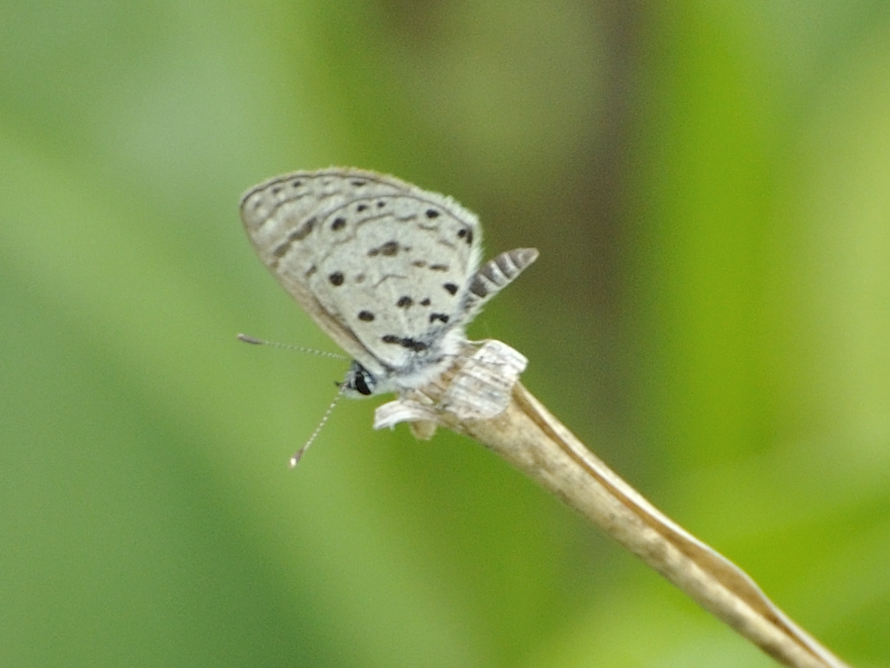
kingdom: Animalia
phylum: Arthropoda
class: Insecta
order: Lepidoptera
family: Lycaenidae
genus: Azanus
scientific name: Azanus moriqua
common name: Thorn-tree babul blue
